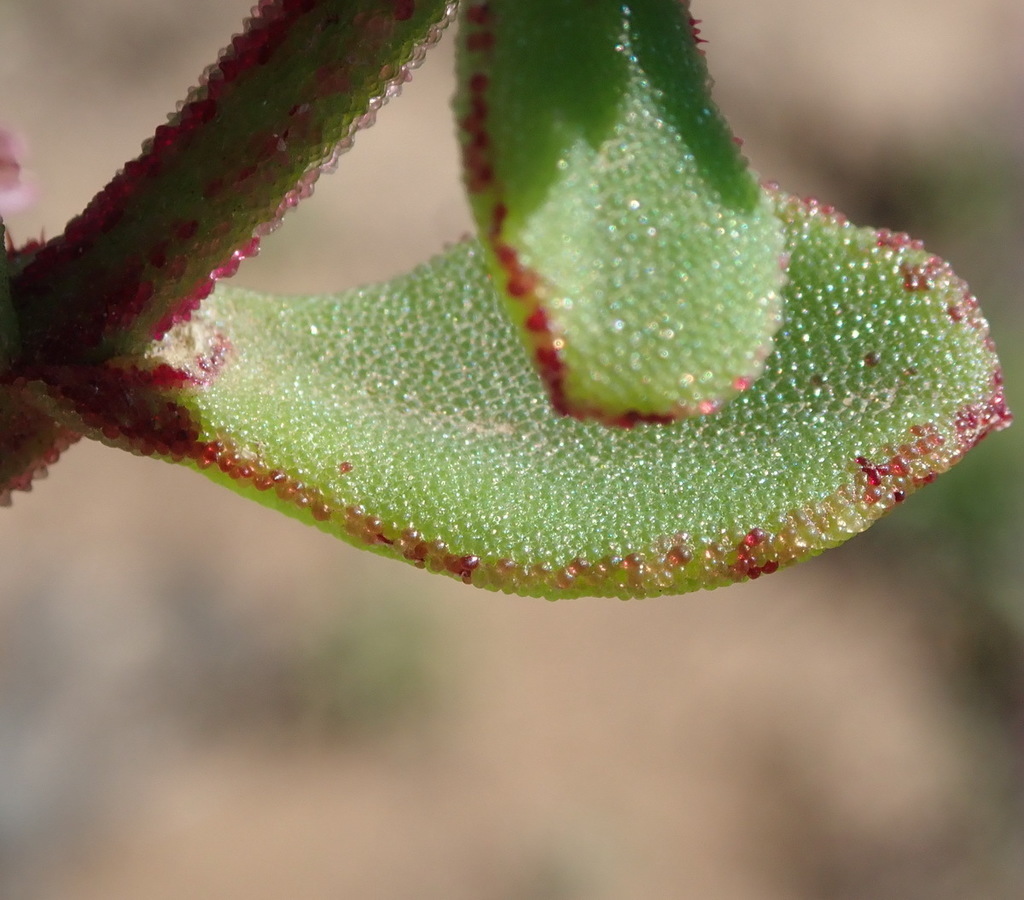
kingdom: Plantae
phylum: Tracheophyta
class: Magnoliopsida
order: Caryophyllales
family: Aizoaceae
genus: Mesembryanthemum
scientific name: Mesembryanthemum aitonis
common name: Angled iceplant
